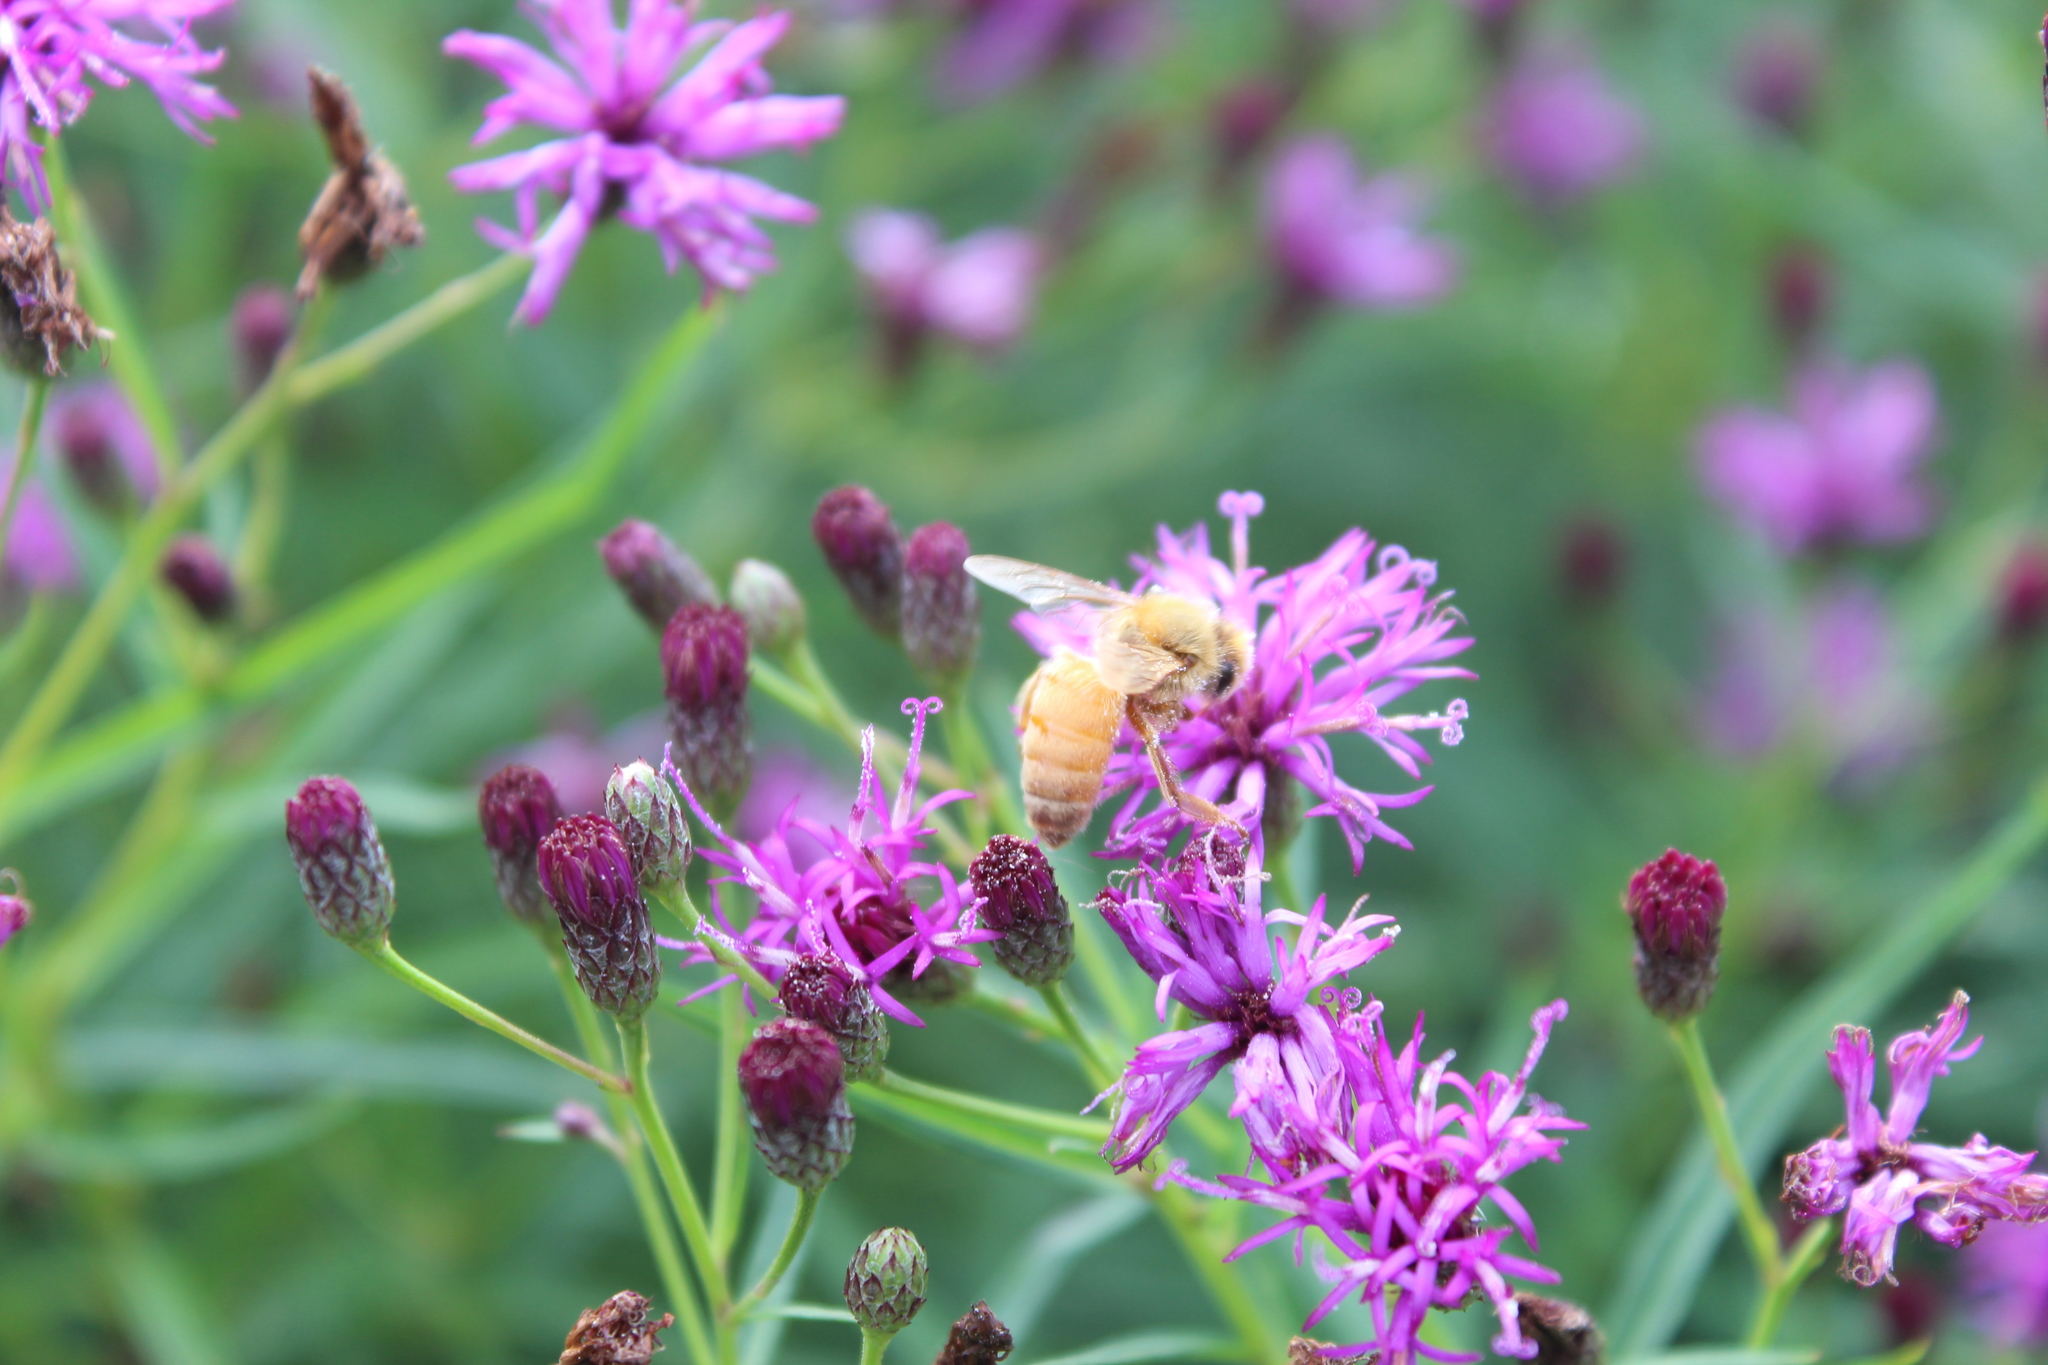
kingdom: Animalia
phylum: Arthropoda
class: Insecta
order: Hymenoptera
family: Apidae
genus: Apis
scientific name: Apis mellifera
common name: Honey bee
